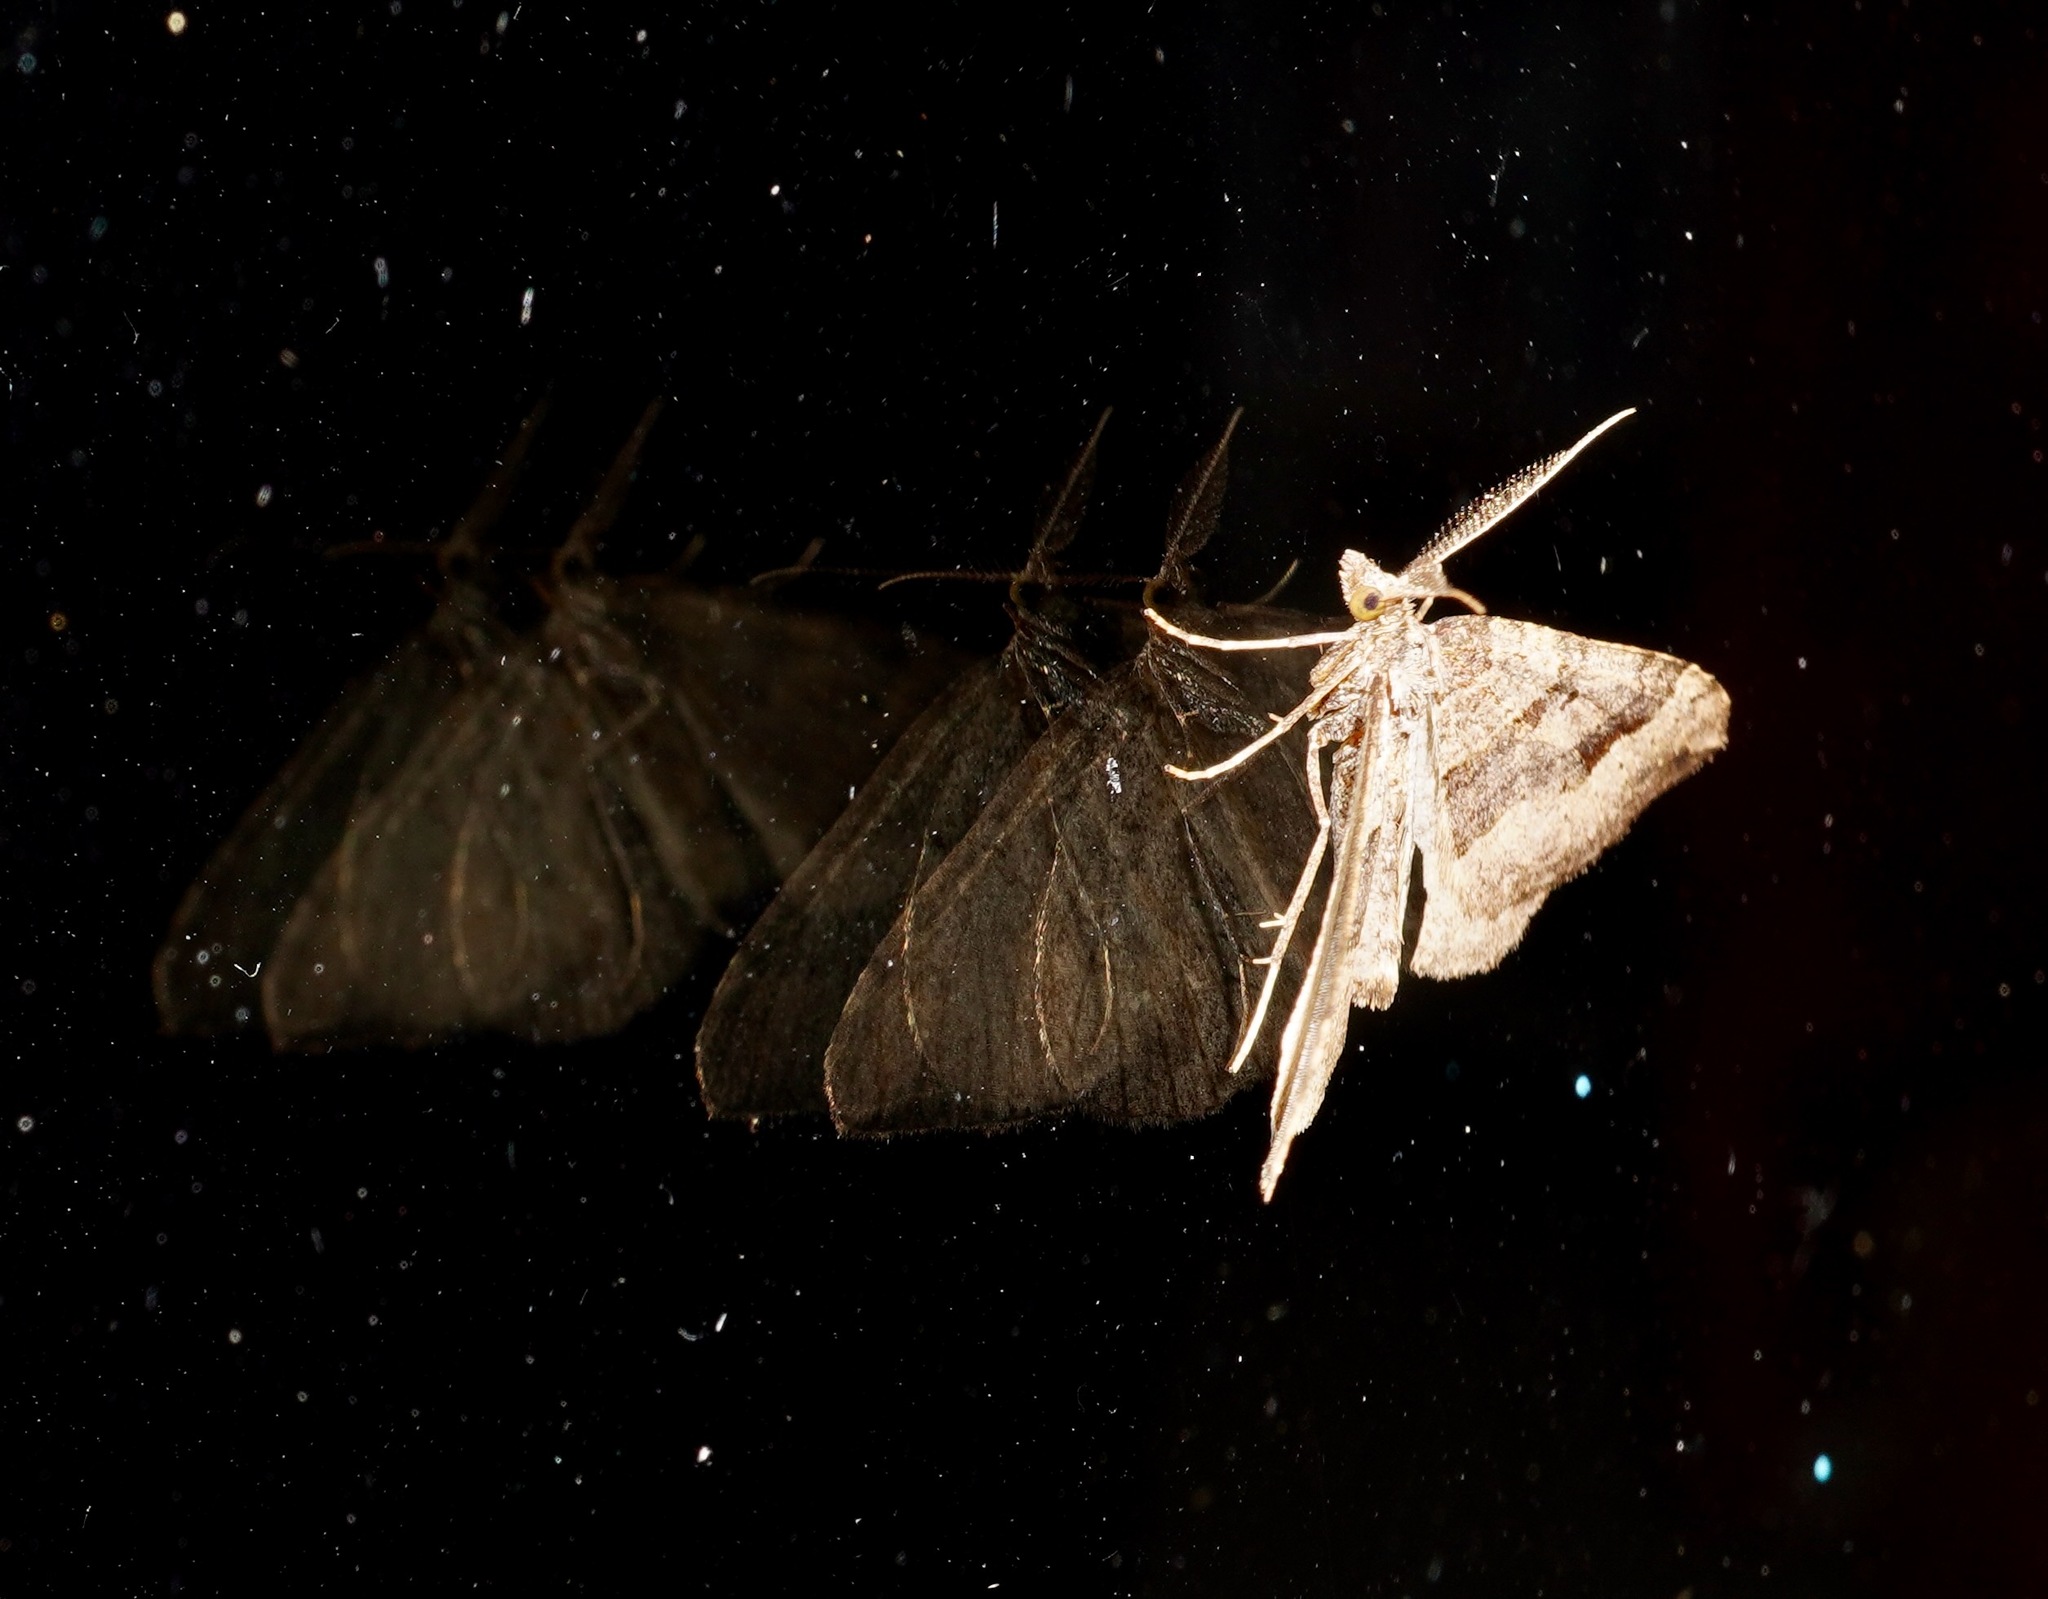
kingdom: Animalia
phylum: Arthropoda
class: Insecta
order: Lepidoptera
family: Geometridae
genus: Epyaxa
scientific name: Epyaxa rosearia
